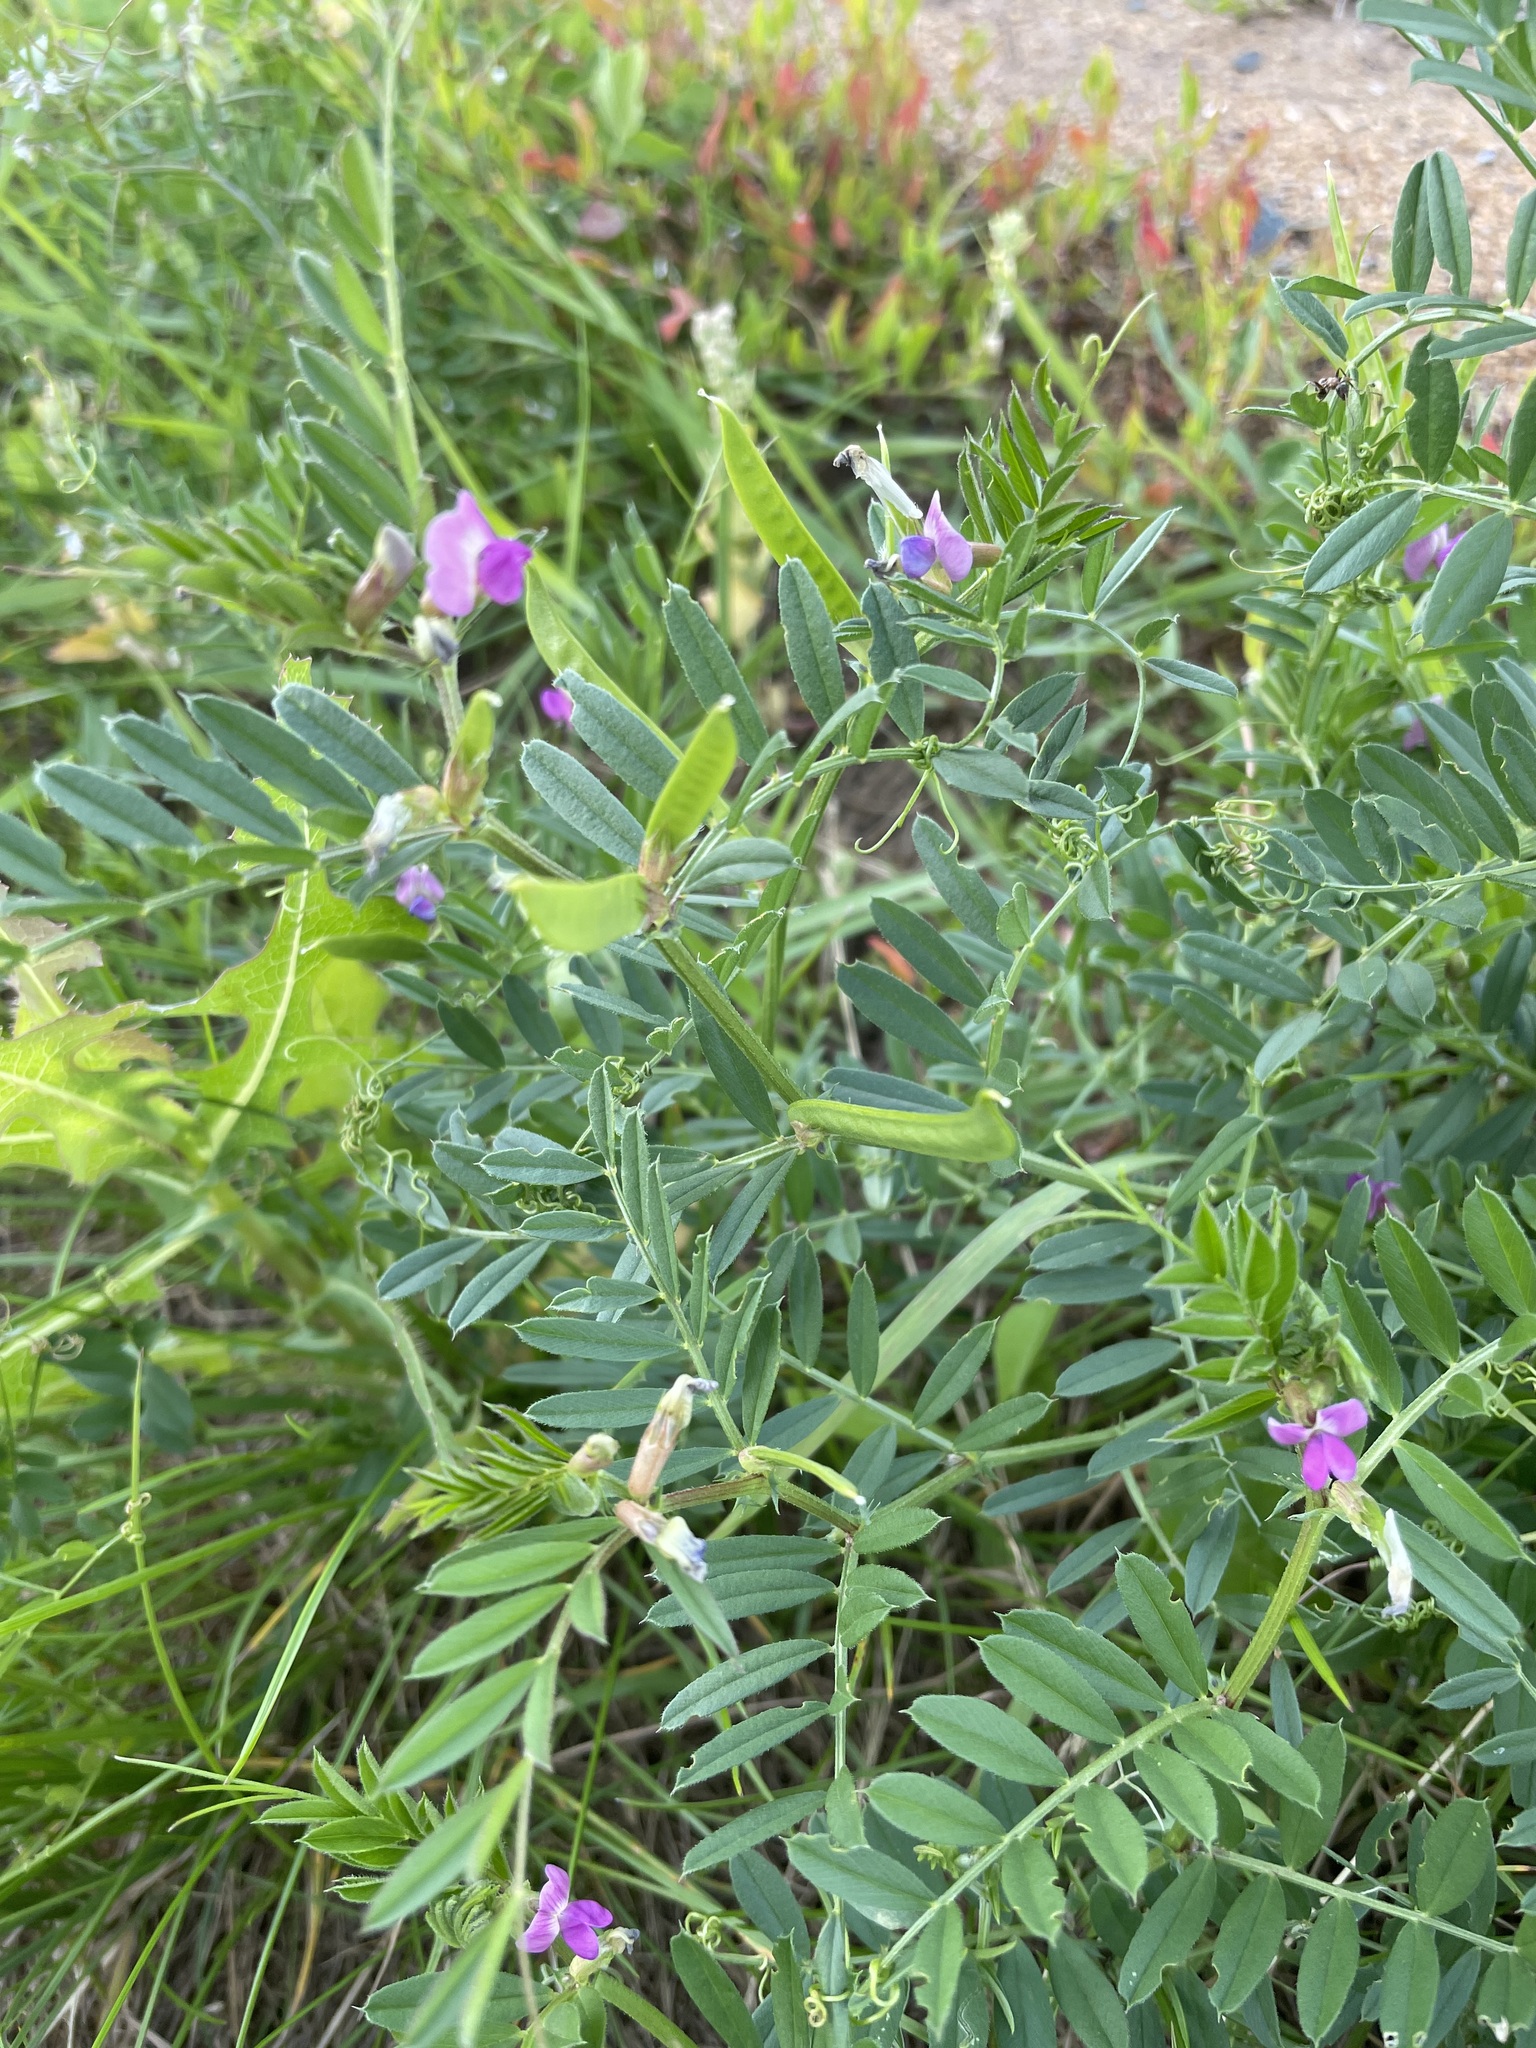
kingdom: Plantae
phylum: Tracheophyta
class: Magnoliopsida
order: Fabales
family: Fabaceae
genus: Vicia
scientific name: Vicia sativa
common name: Garden vetch
